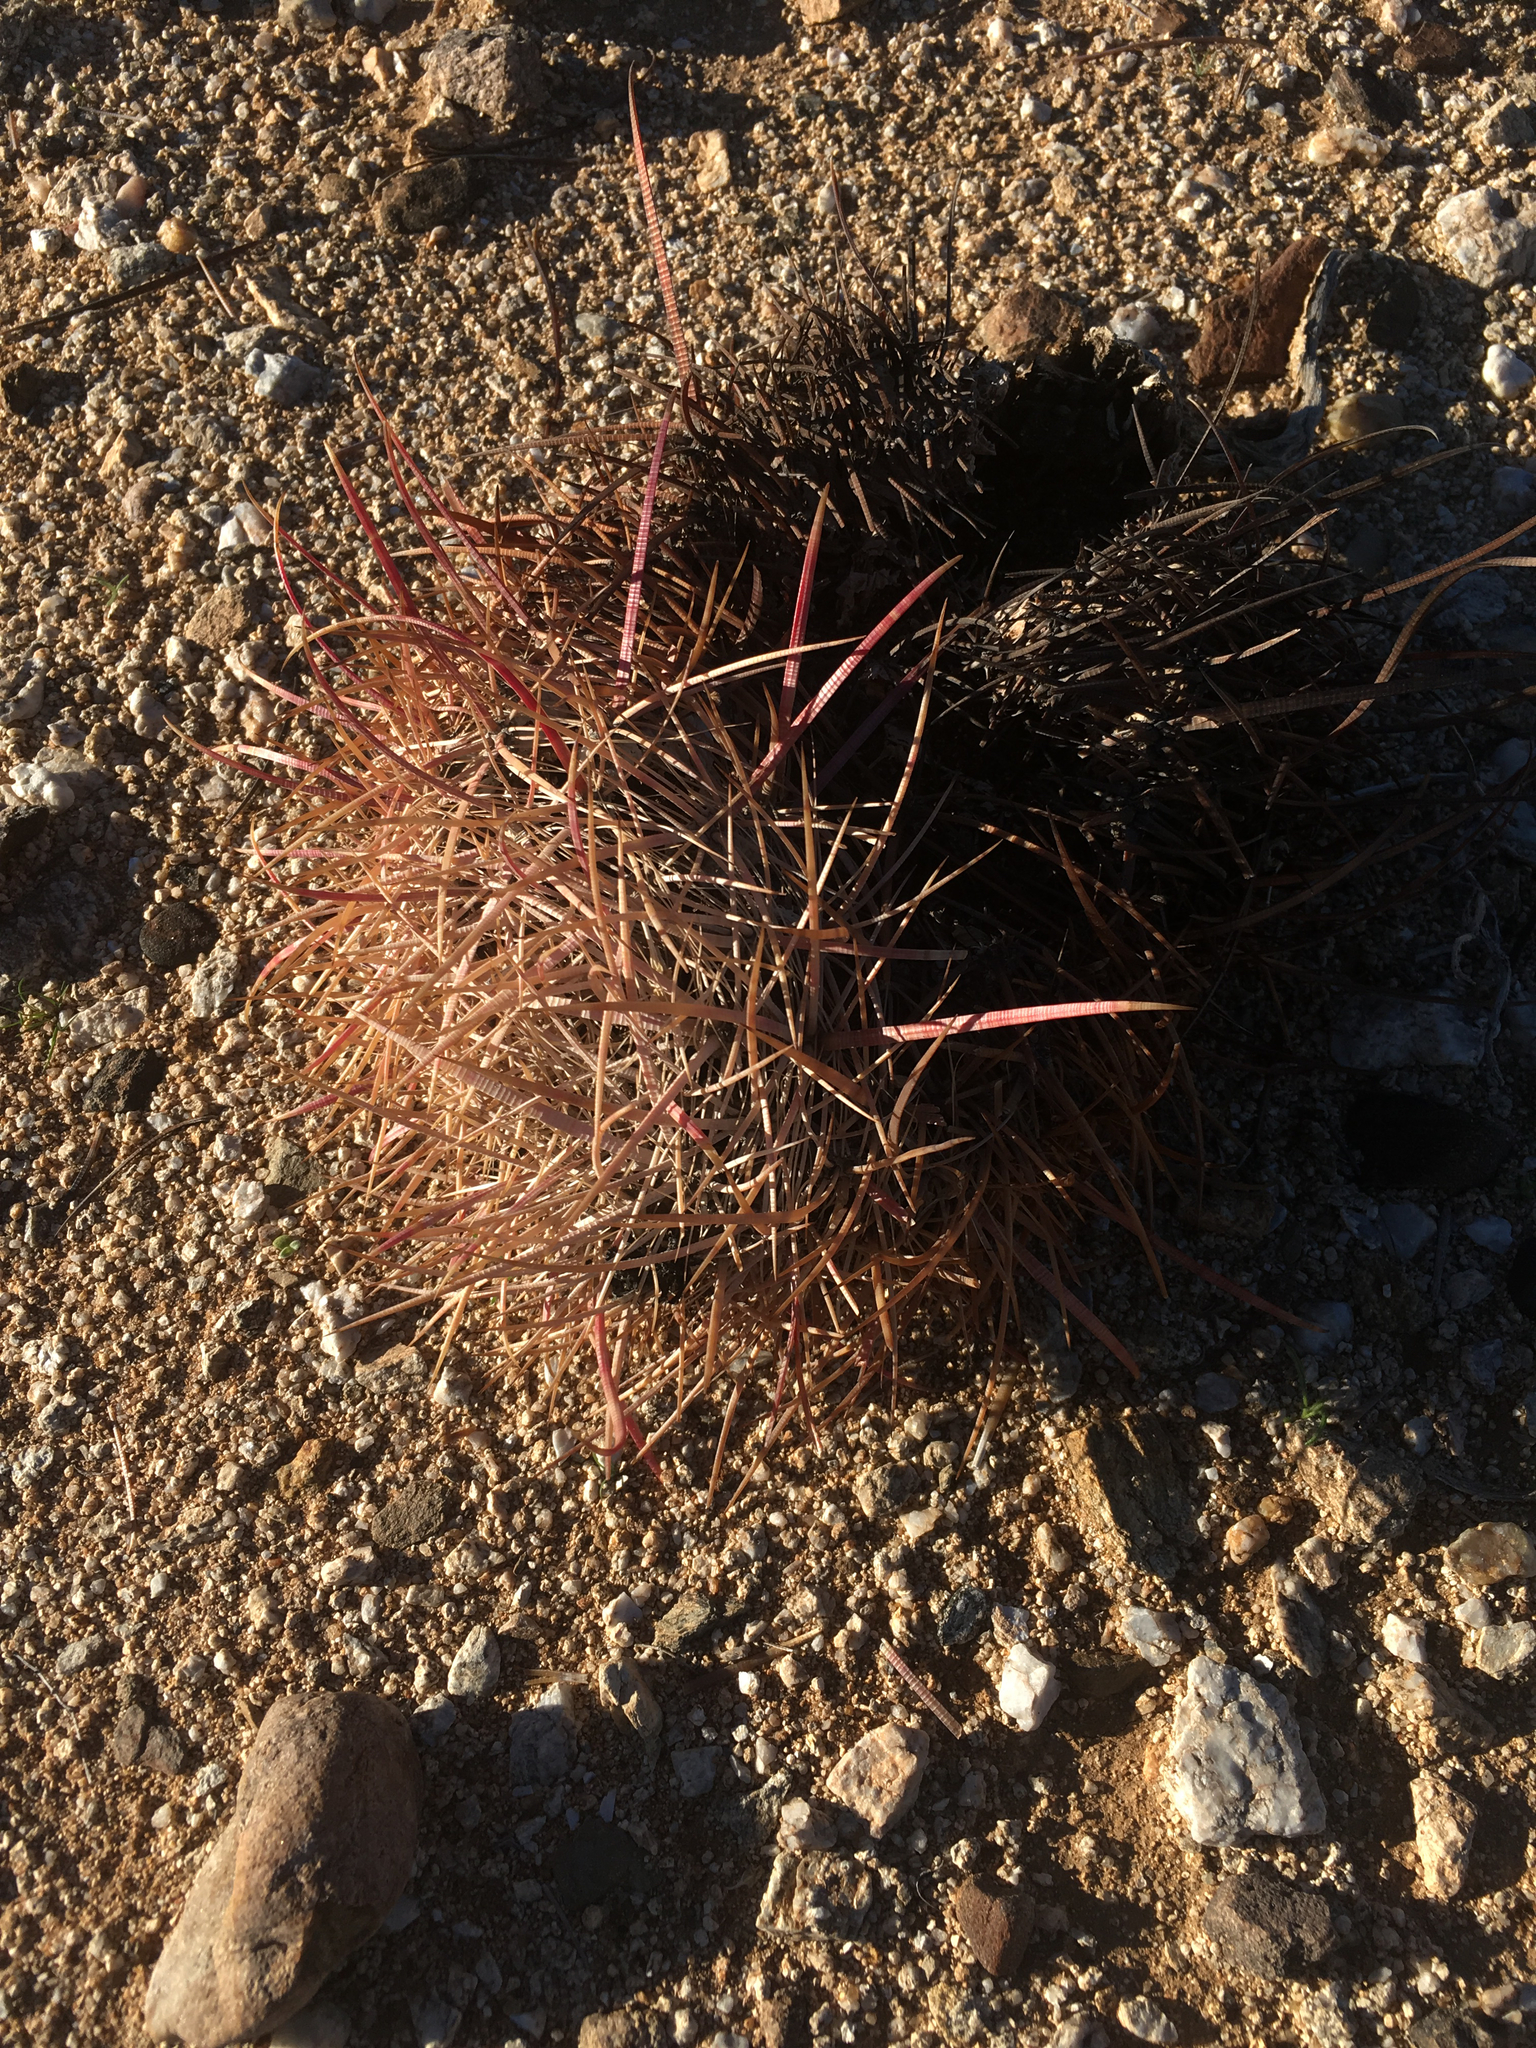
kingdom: Plantae
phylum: Tracheophyta
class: Magnoliopsida
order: Caryophyllales
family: Cactaceae
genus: Ferocactus
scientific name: Ferocactus cylindraceus
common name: California barrel cactus
